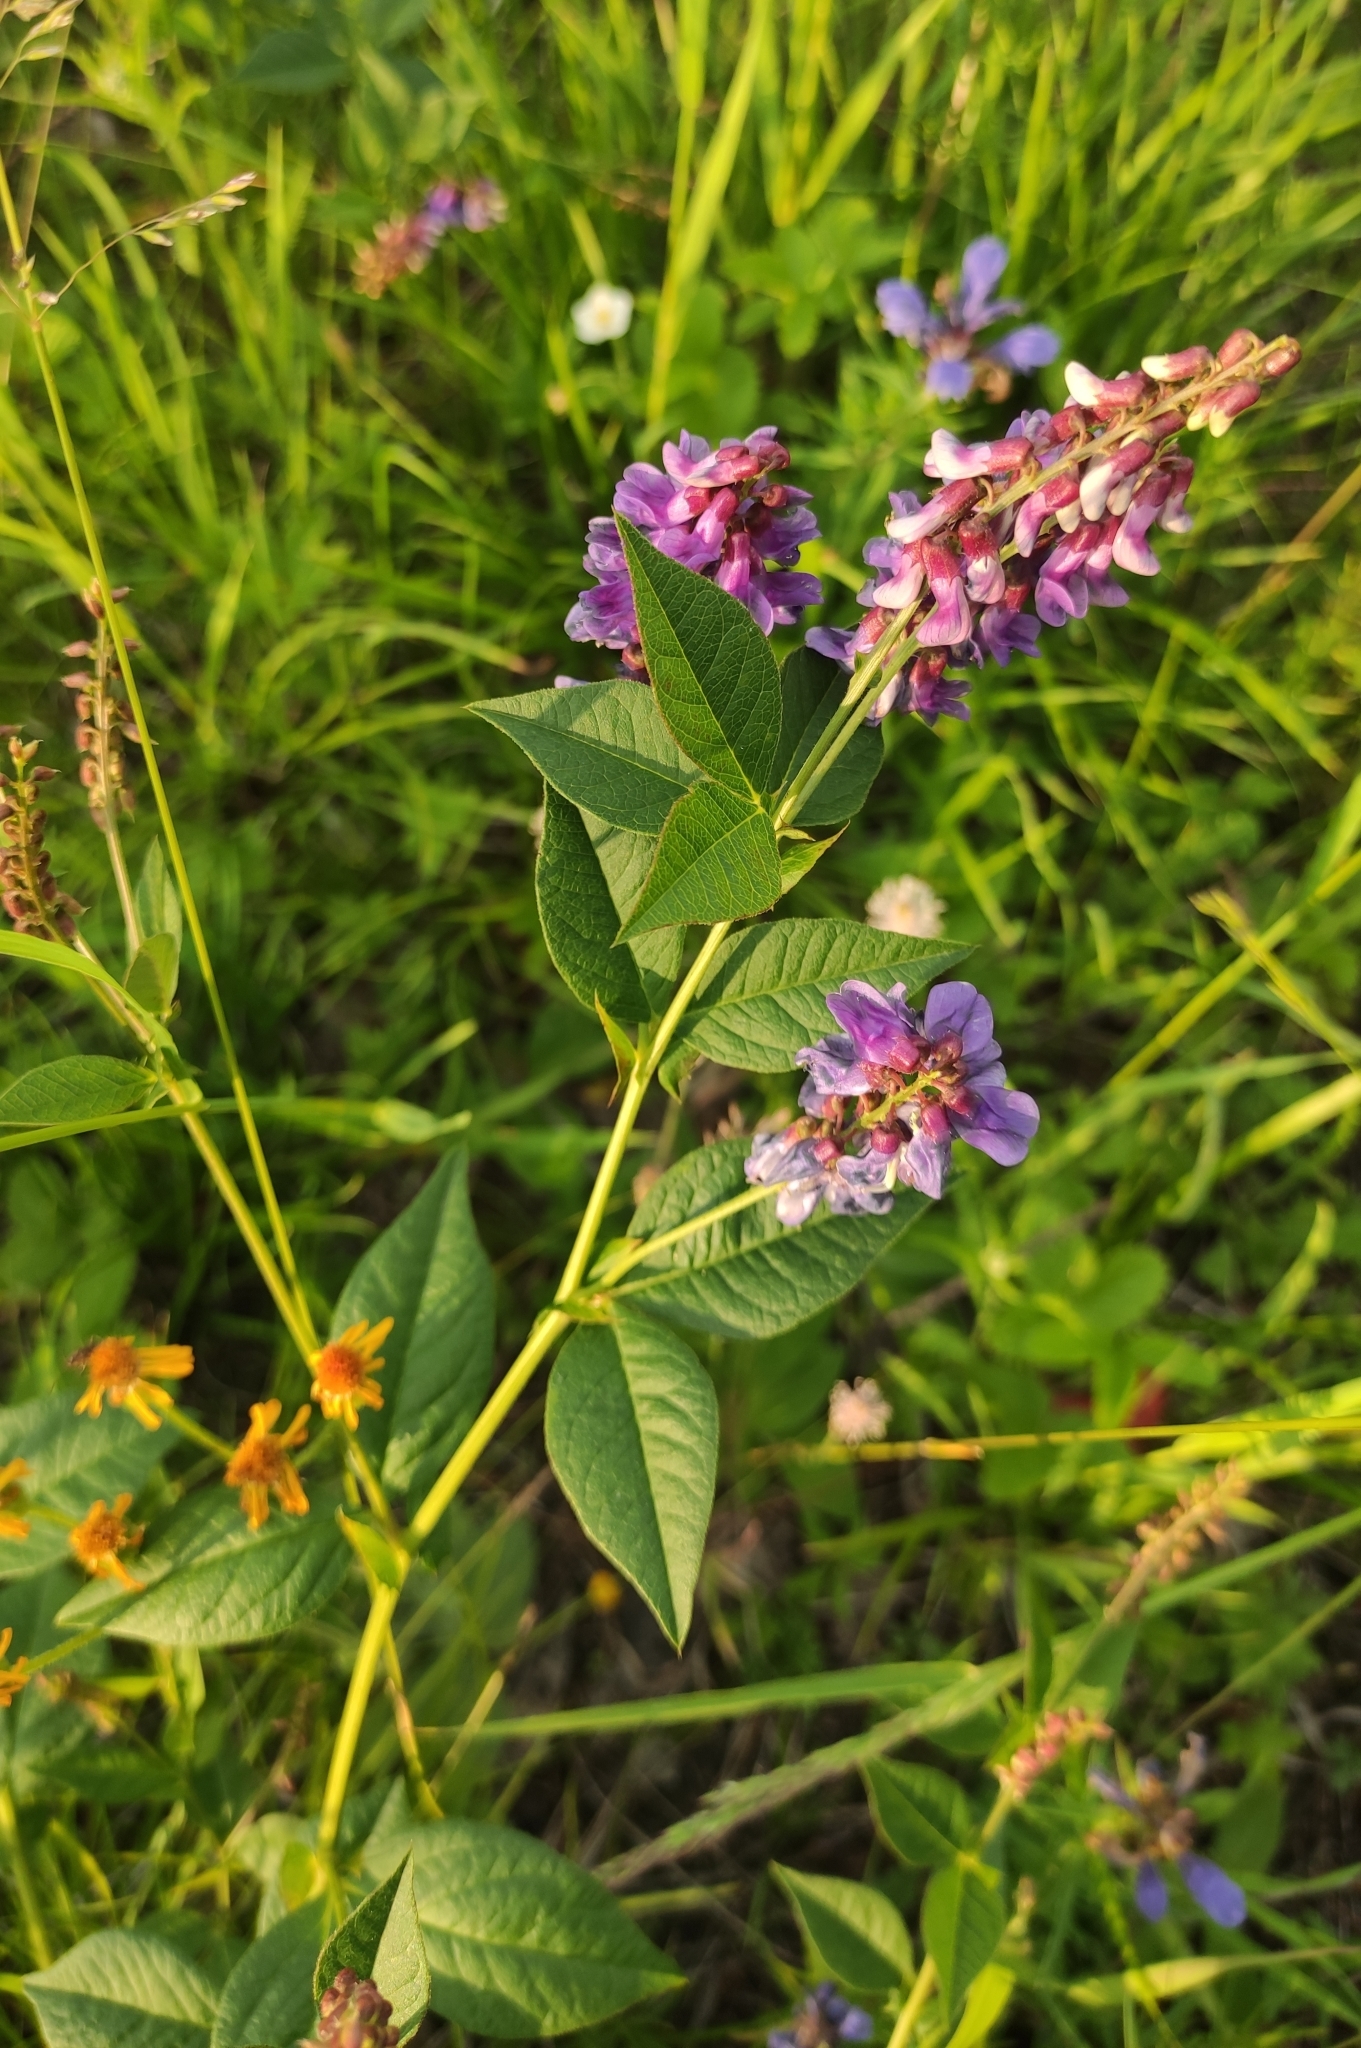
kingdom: Plantae
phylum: Tracheophyta
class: Magnoliopsida
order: Fabales
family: Fabaceae
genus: Vicia
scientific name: Vicia unijuga
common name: Two-leaf vetch
